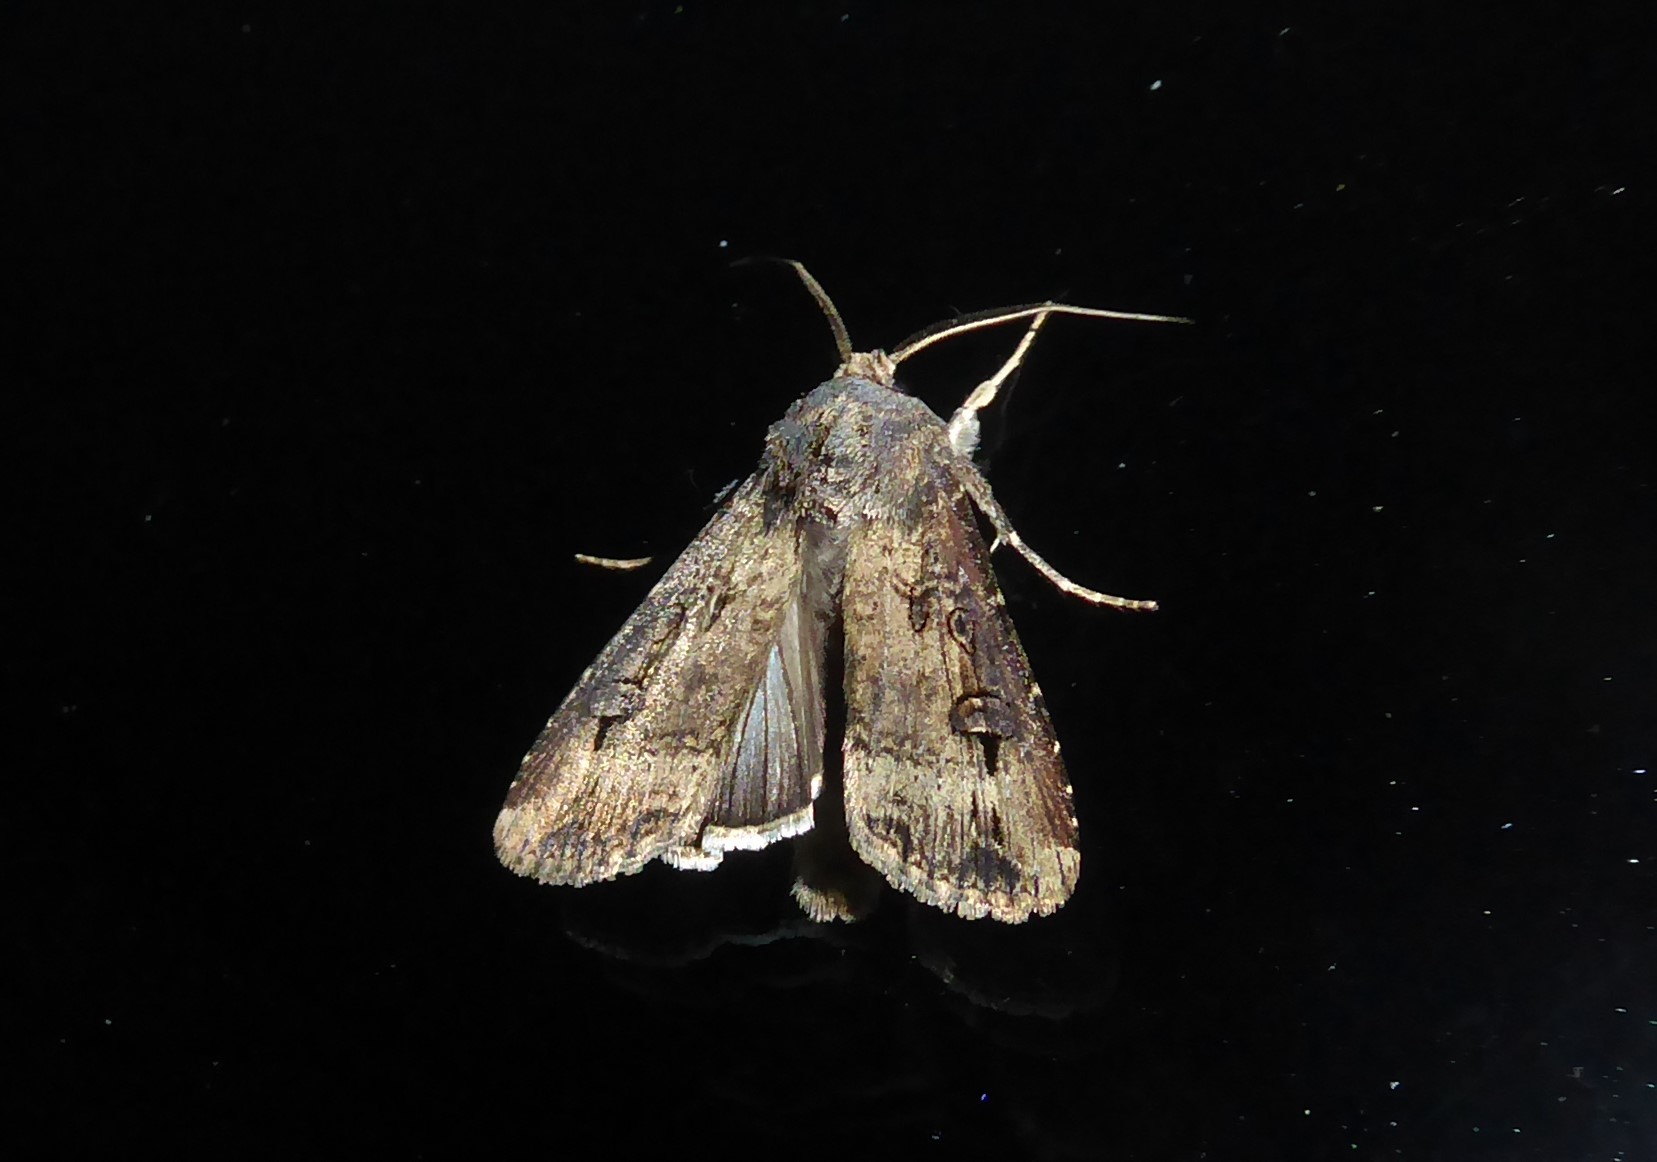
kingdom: Animalia
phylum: Arthropoda
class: Insecta
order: Lepidoptera
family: Noctuidae
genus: Agrotis
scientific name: Agrotis ipsilon
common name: Dark sword-grass
